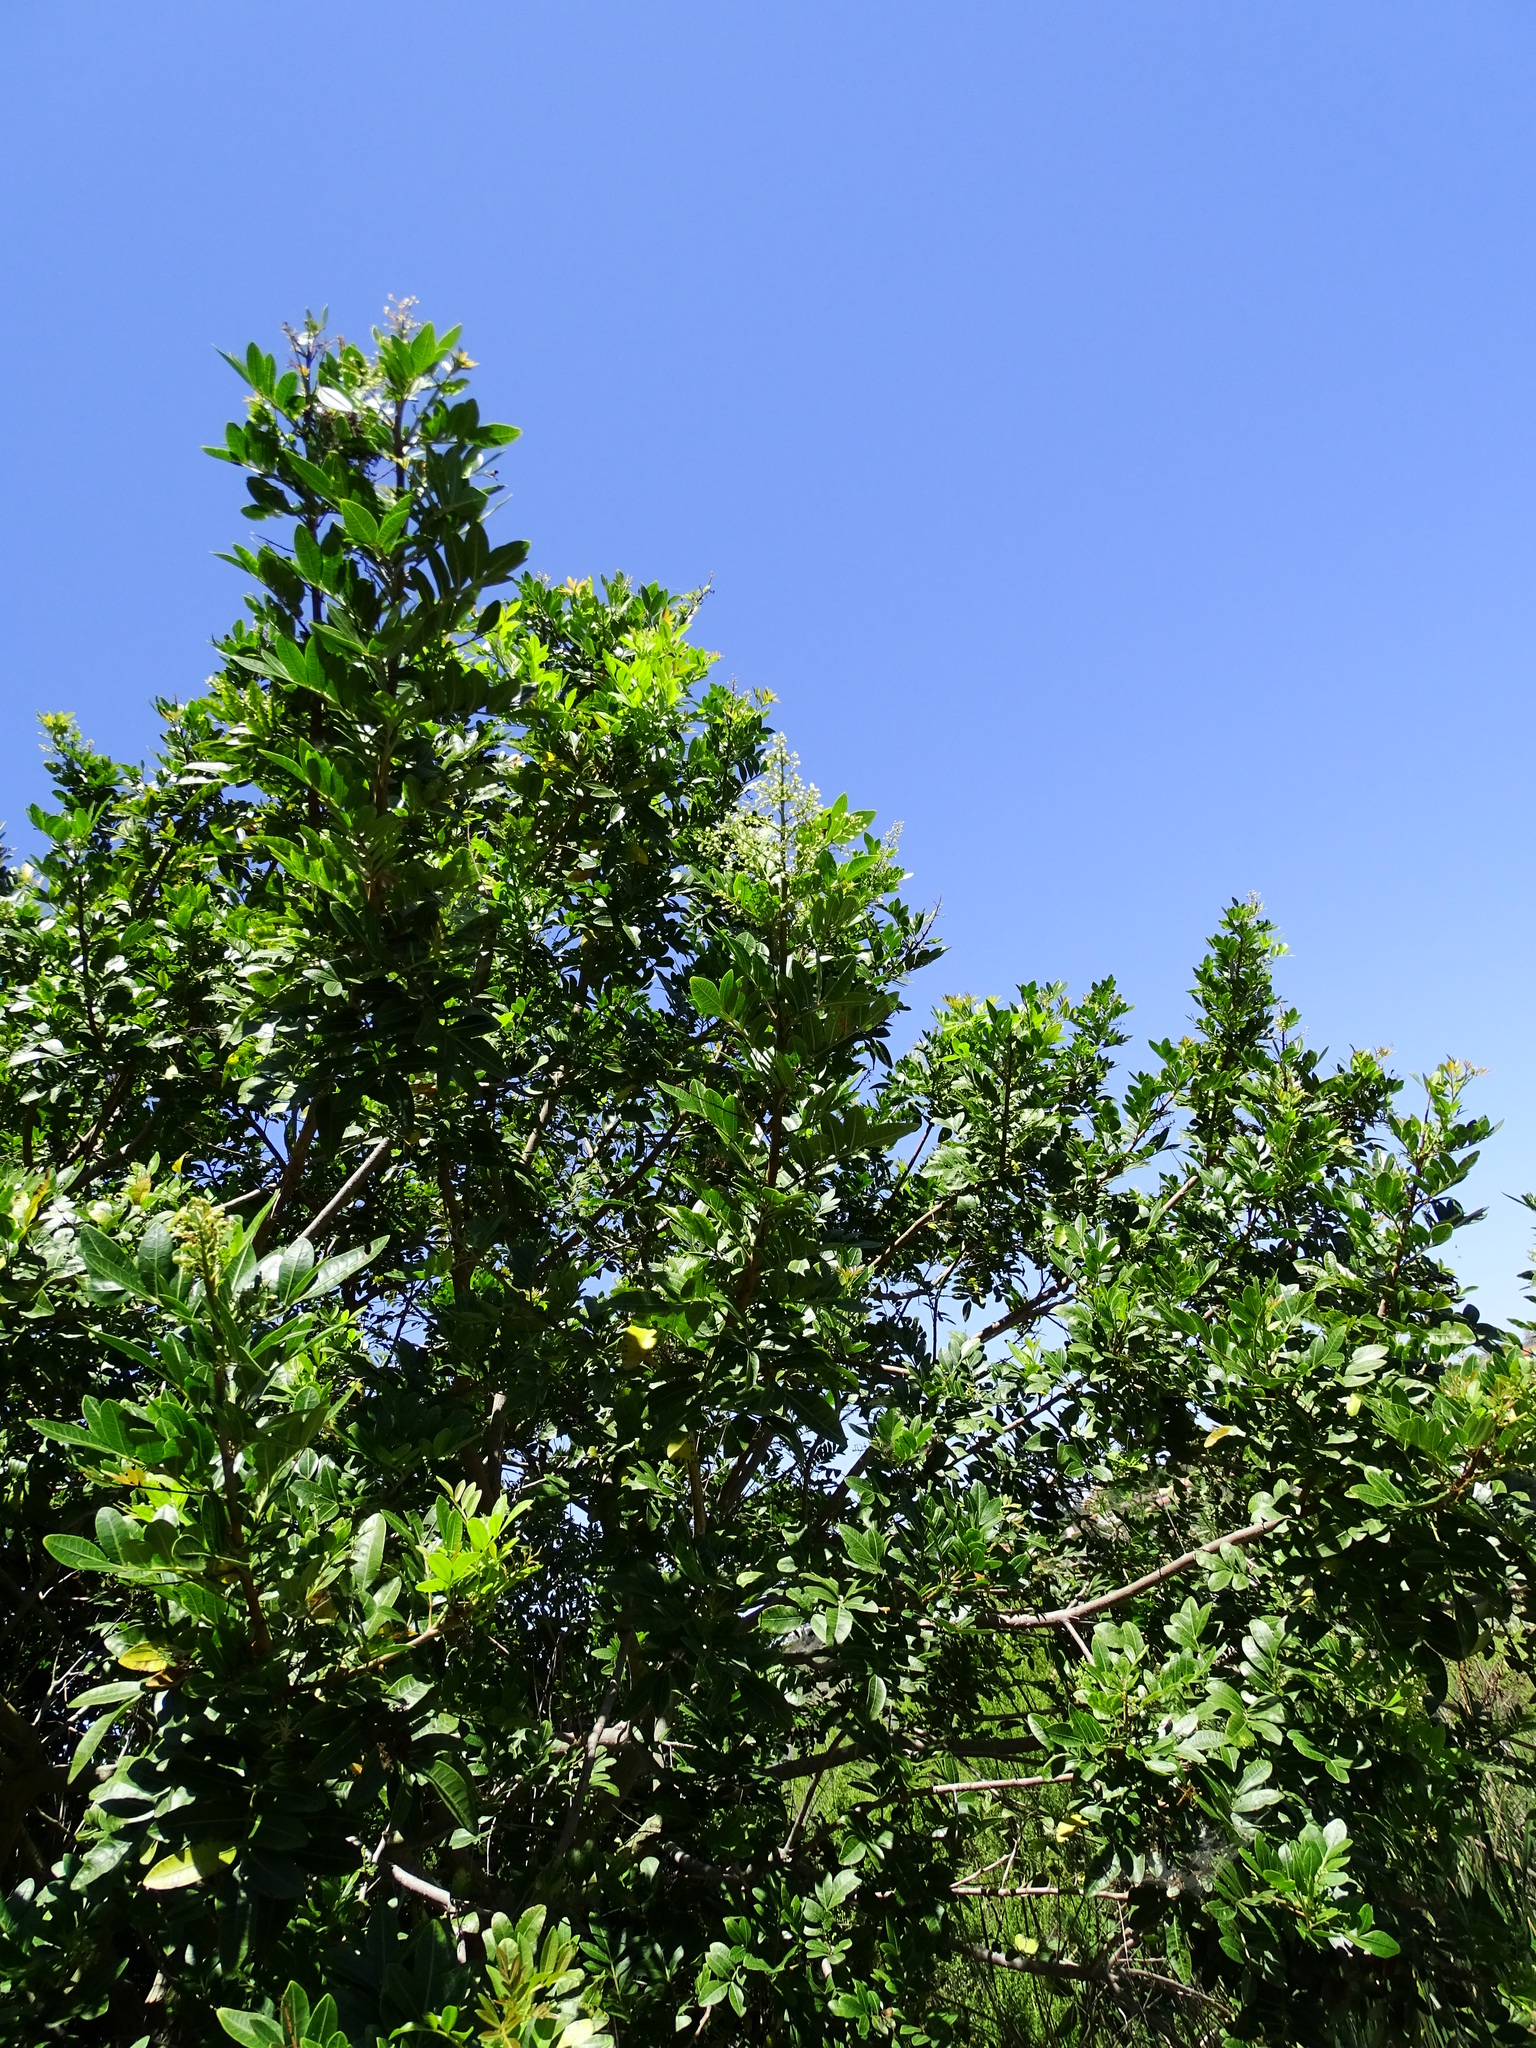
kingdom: Plantae
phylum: Tracheophyta
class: Magnoliopsida
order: Sapindales
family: Anacardiaceae
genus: Schinus
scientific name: Schinus terebinthifolia
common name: Brazilian peppertree
